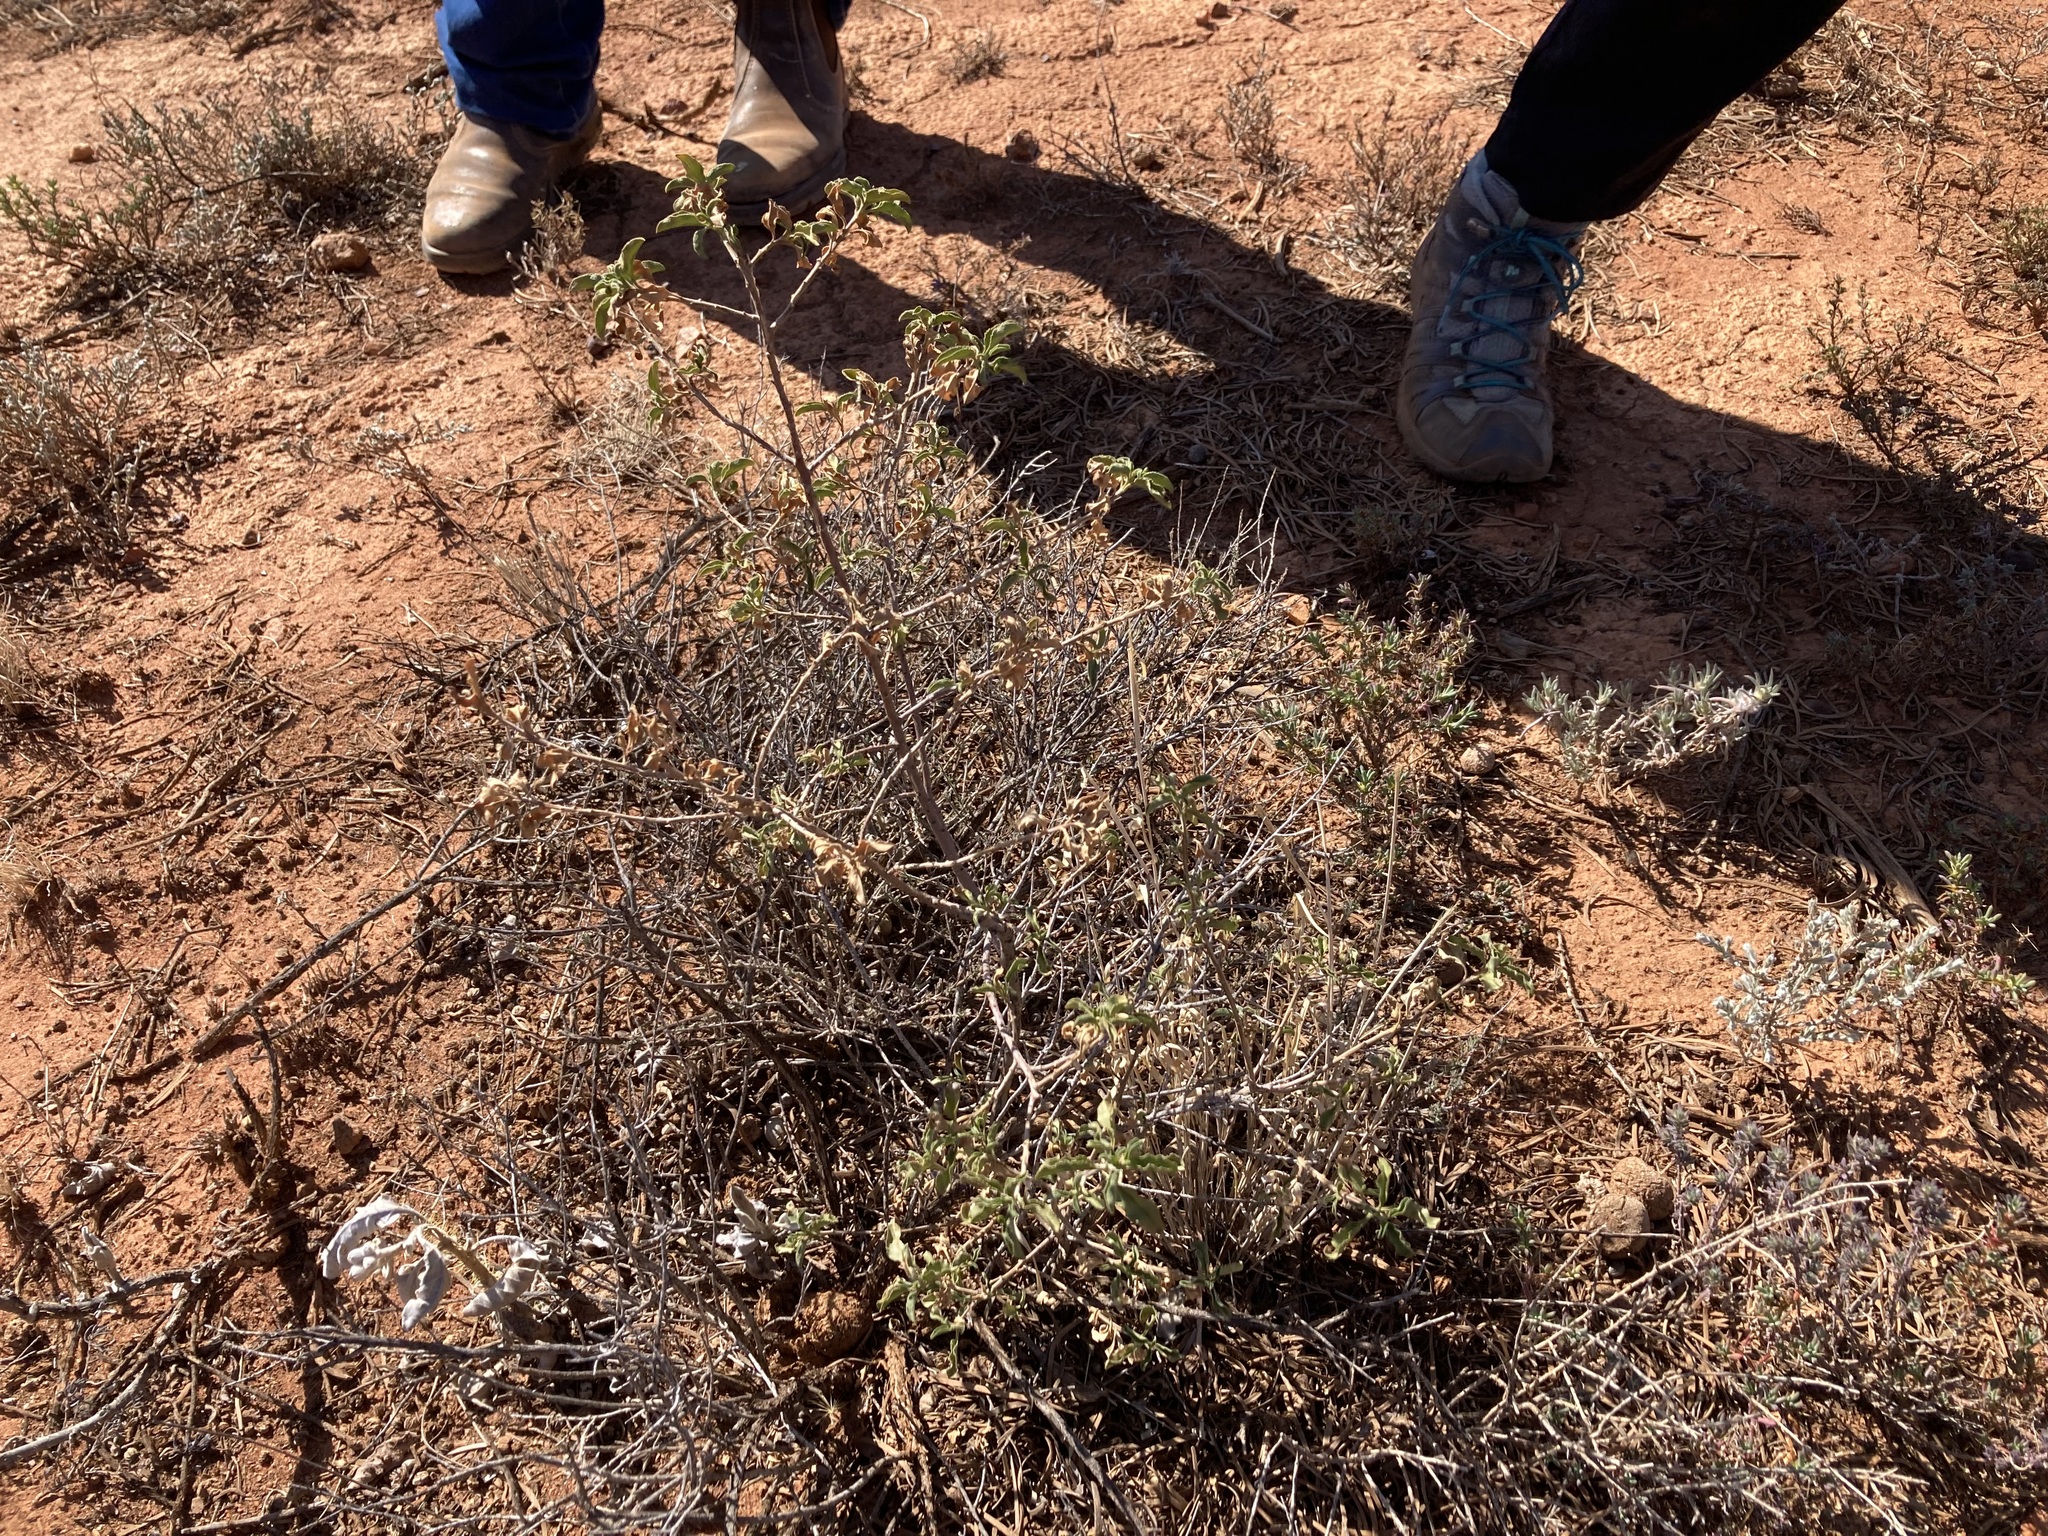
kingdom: Plantae
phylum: Tracheophyta
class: Magnoliopsida
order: Lamiales
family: Scrophulariaceae
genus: Eremophila
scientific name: Eremophila serrulata
